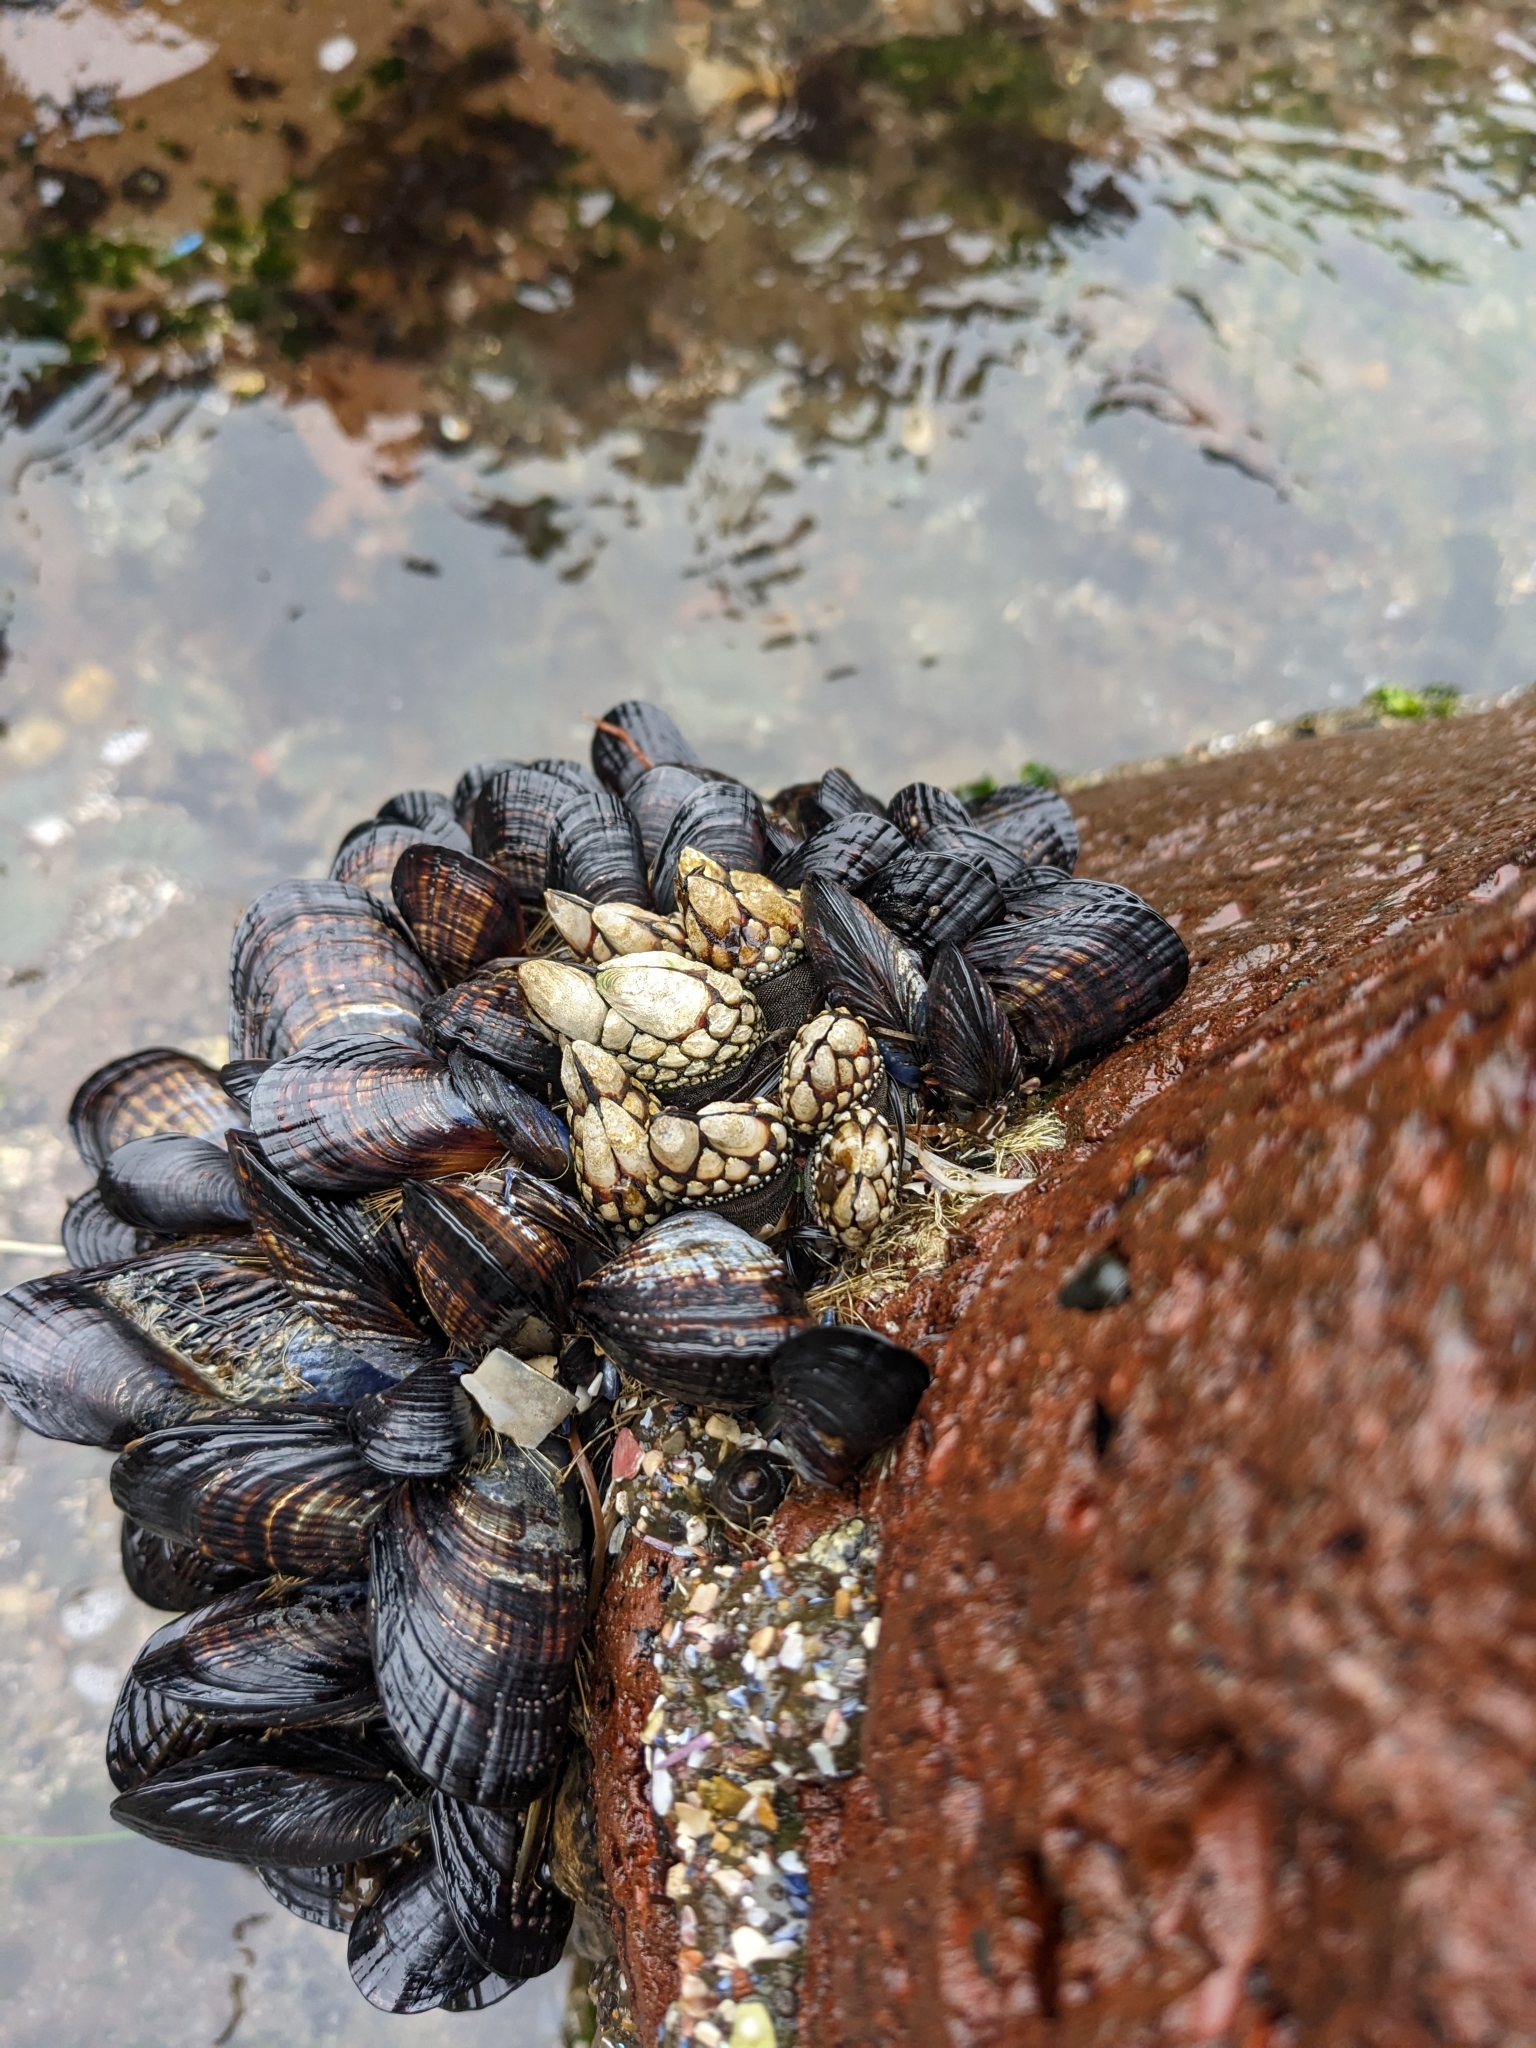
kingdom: Animalia
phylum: Arthropoda
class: Maxillopoda
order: Pedunculata
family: Pollicipedidae
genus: Pollicipes
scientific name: Pollicipes polymerus
